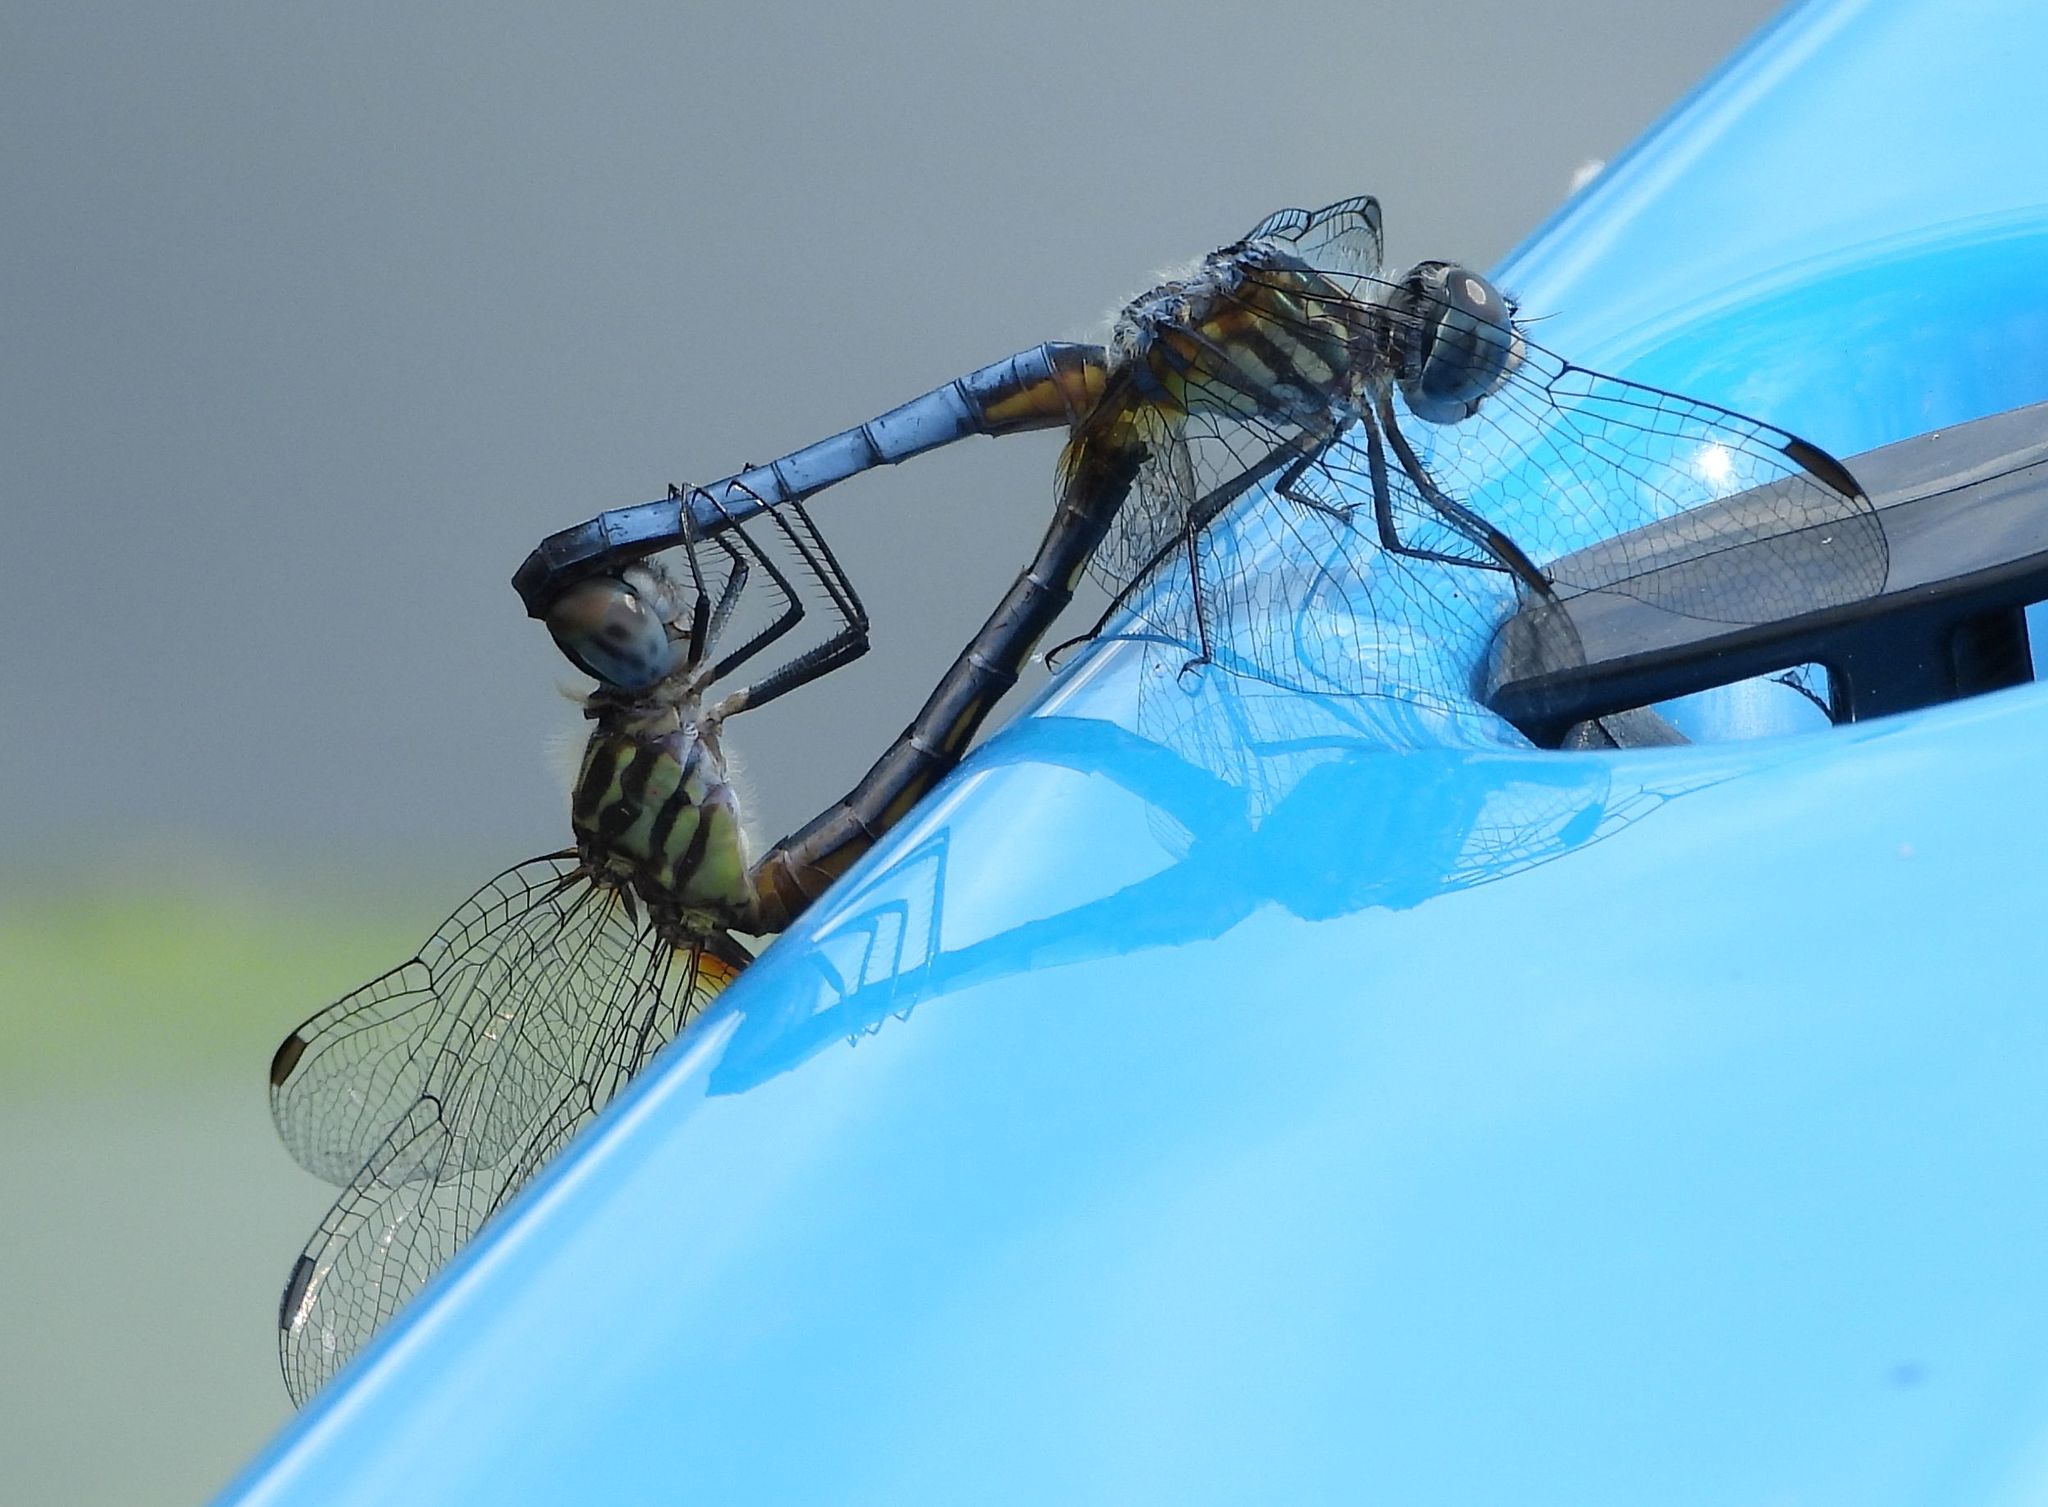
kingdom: Animalia
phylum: Arthropoda
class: Insecta
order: Odonata
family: Libellulidae
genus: Pachydiplax
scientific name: Pachydiplax longipennis
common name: Blue dasher
